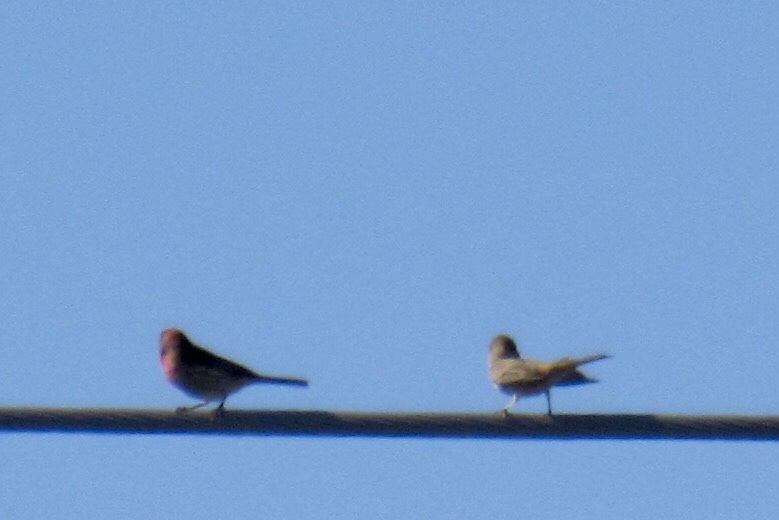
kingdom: Animalia
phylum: Chordata
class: Aves
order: Passeriformes
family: Fringillidae
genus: Haemorhous
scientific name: Haemorhous mexicanus
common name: House finch
